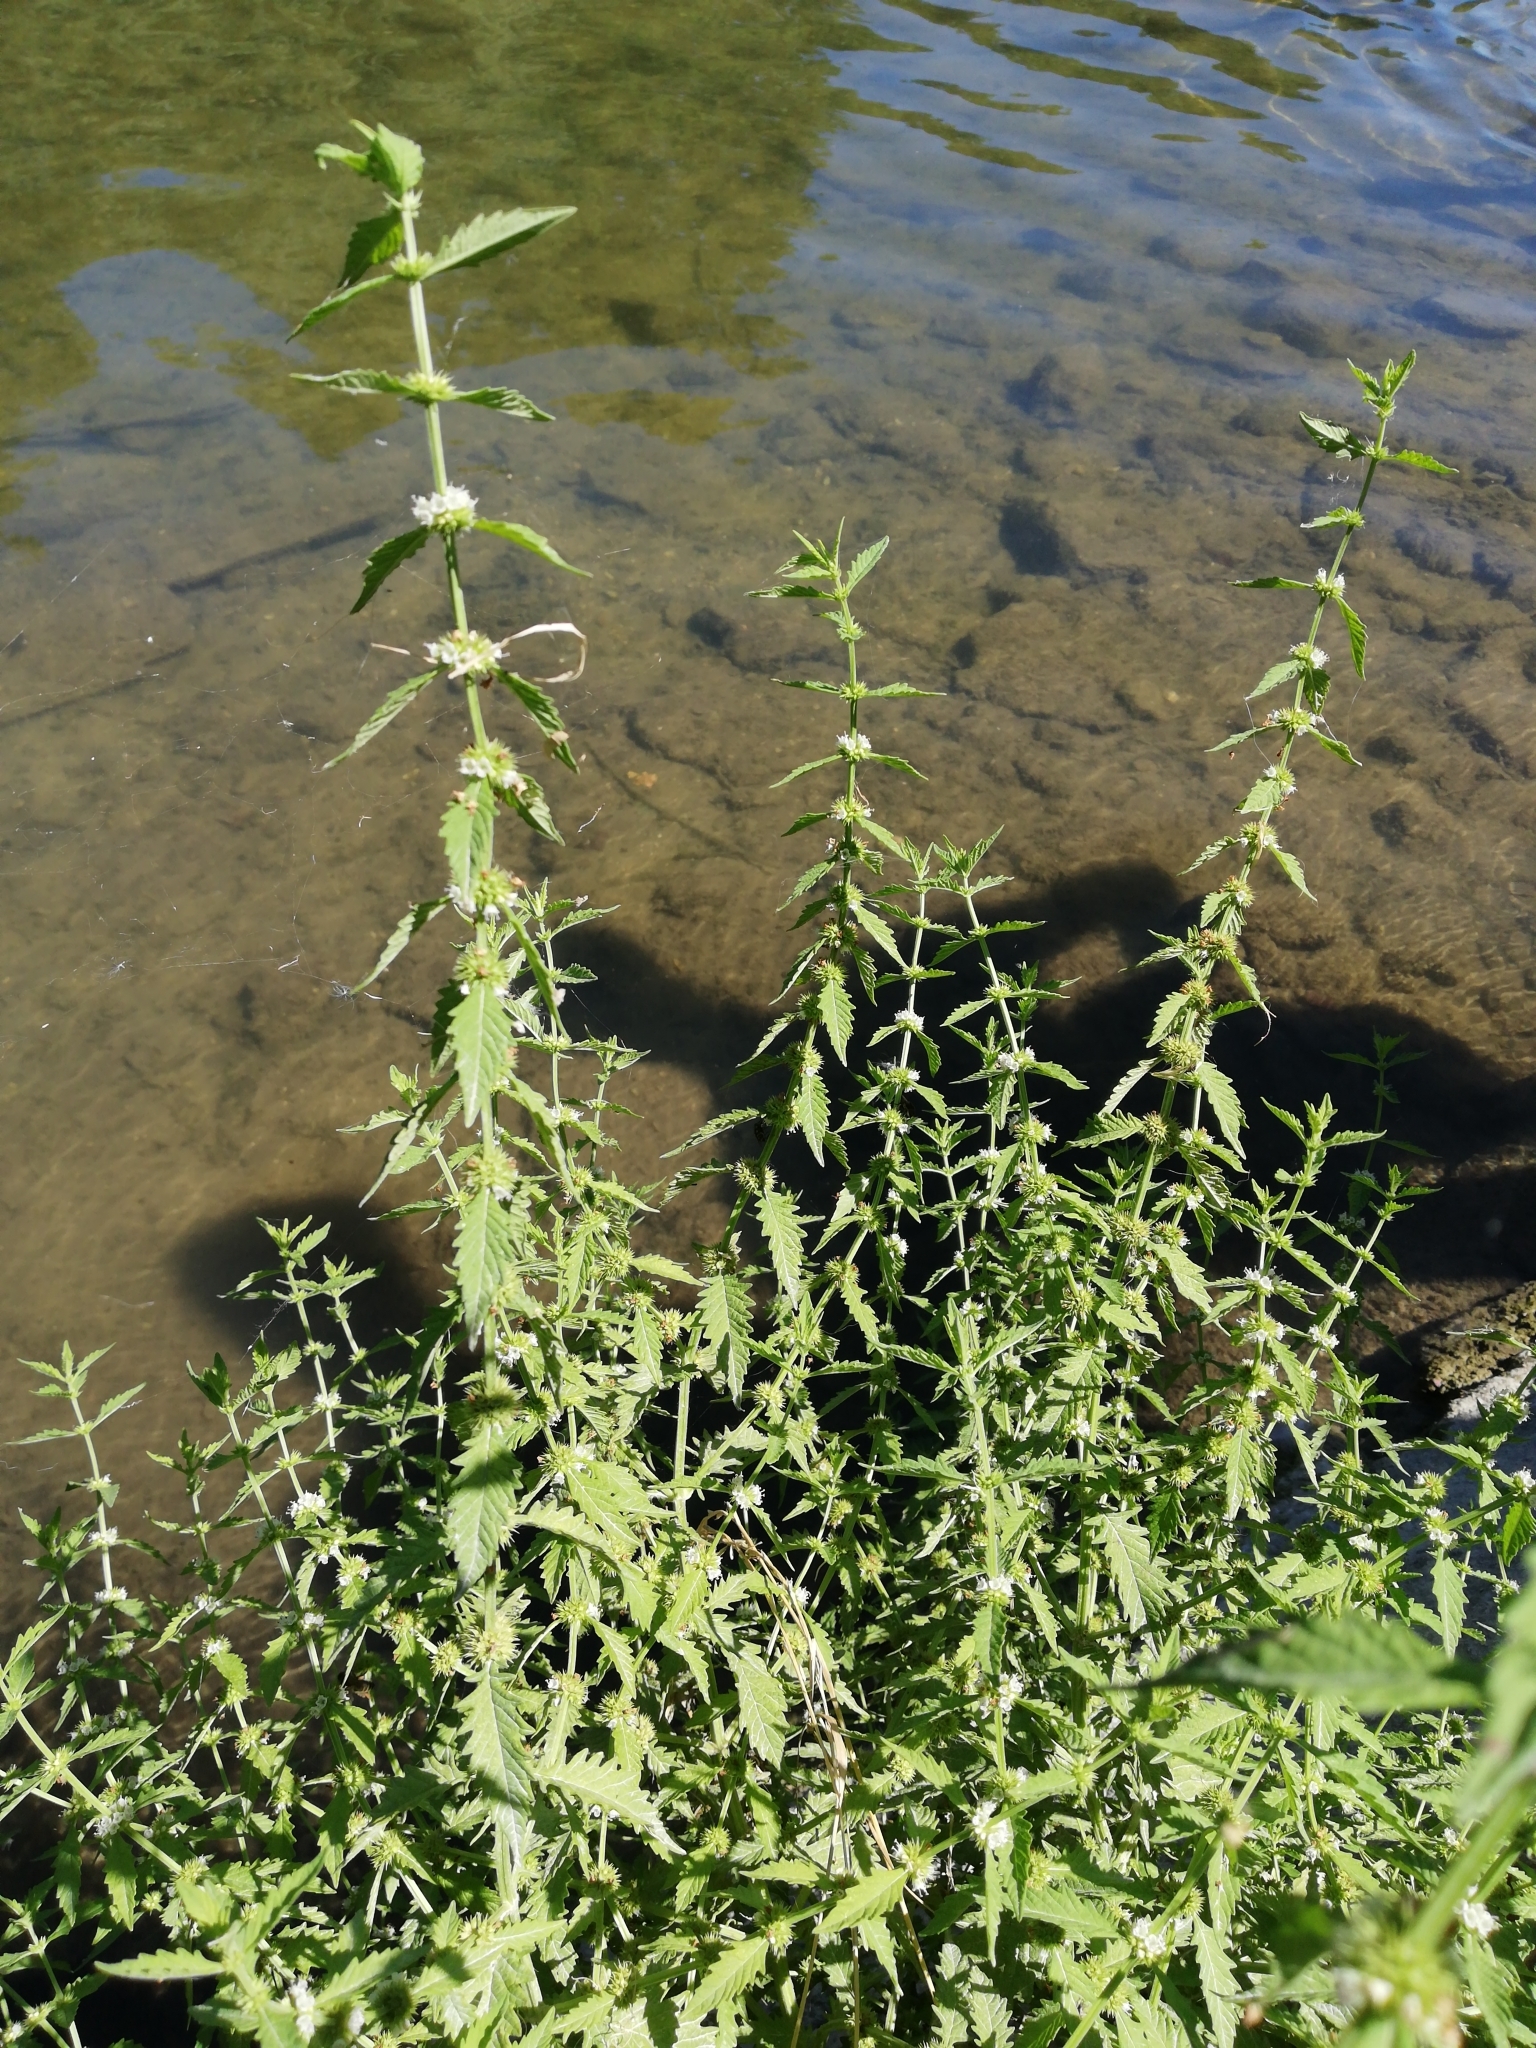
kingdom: Plantae
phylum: Tracheophyta
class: Magnoliopsida
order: Lamiales
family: Lamiaceae
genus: Lycopus
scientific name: Lycopus europaeus
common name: European bugleweed
